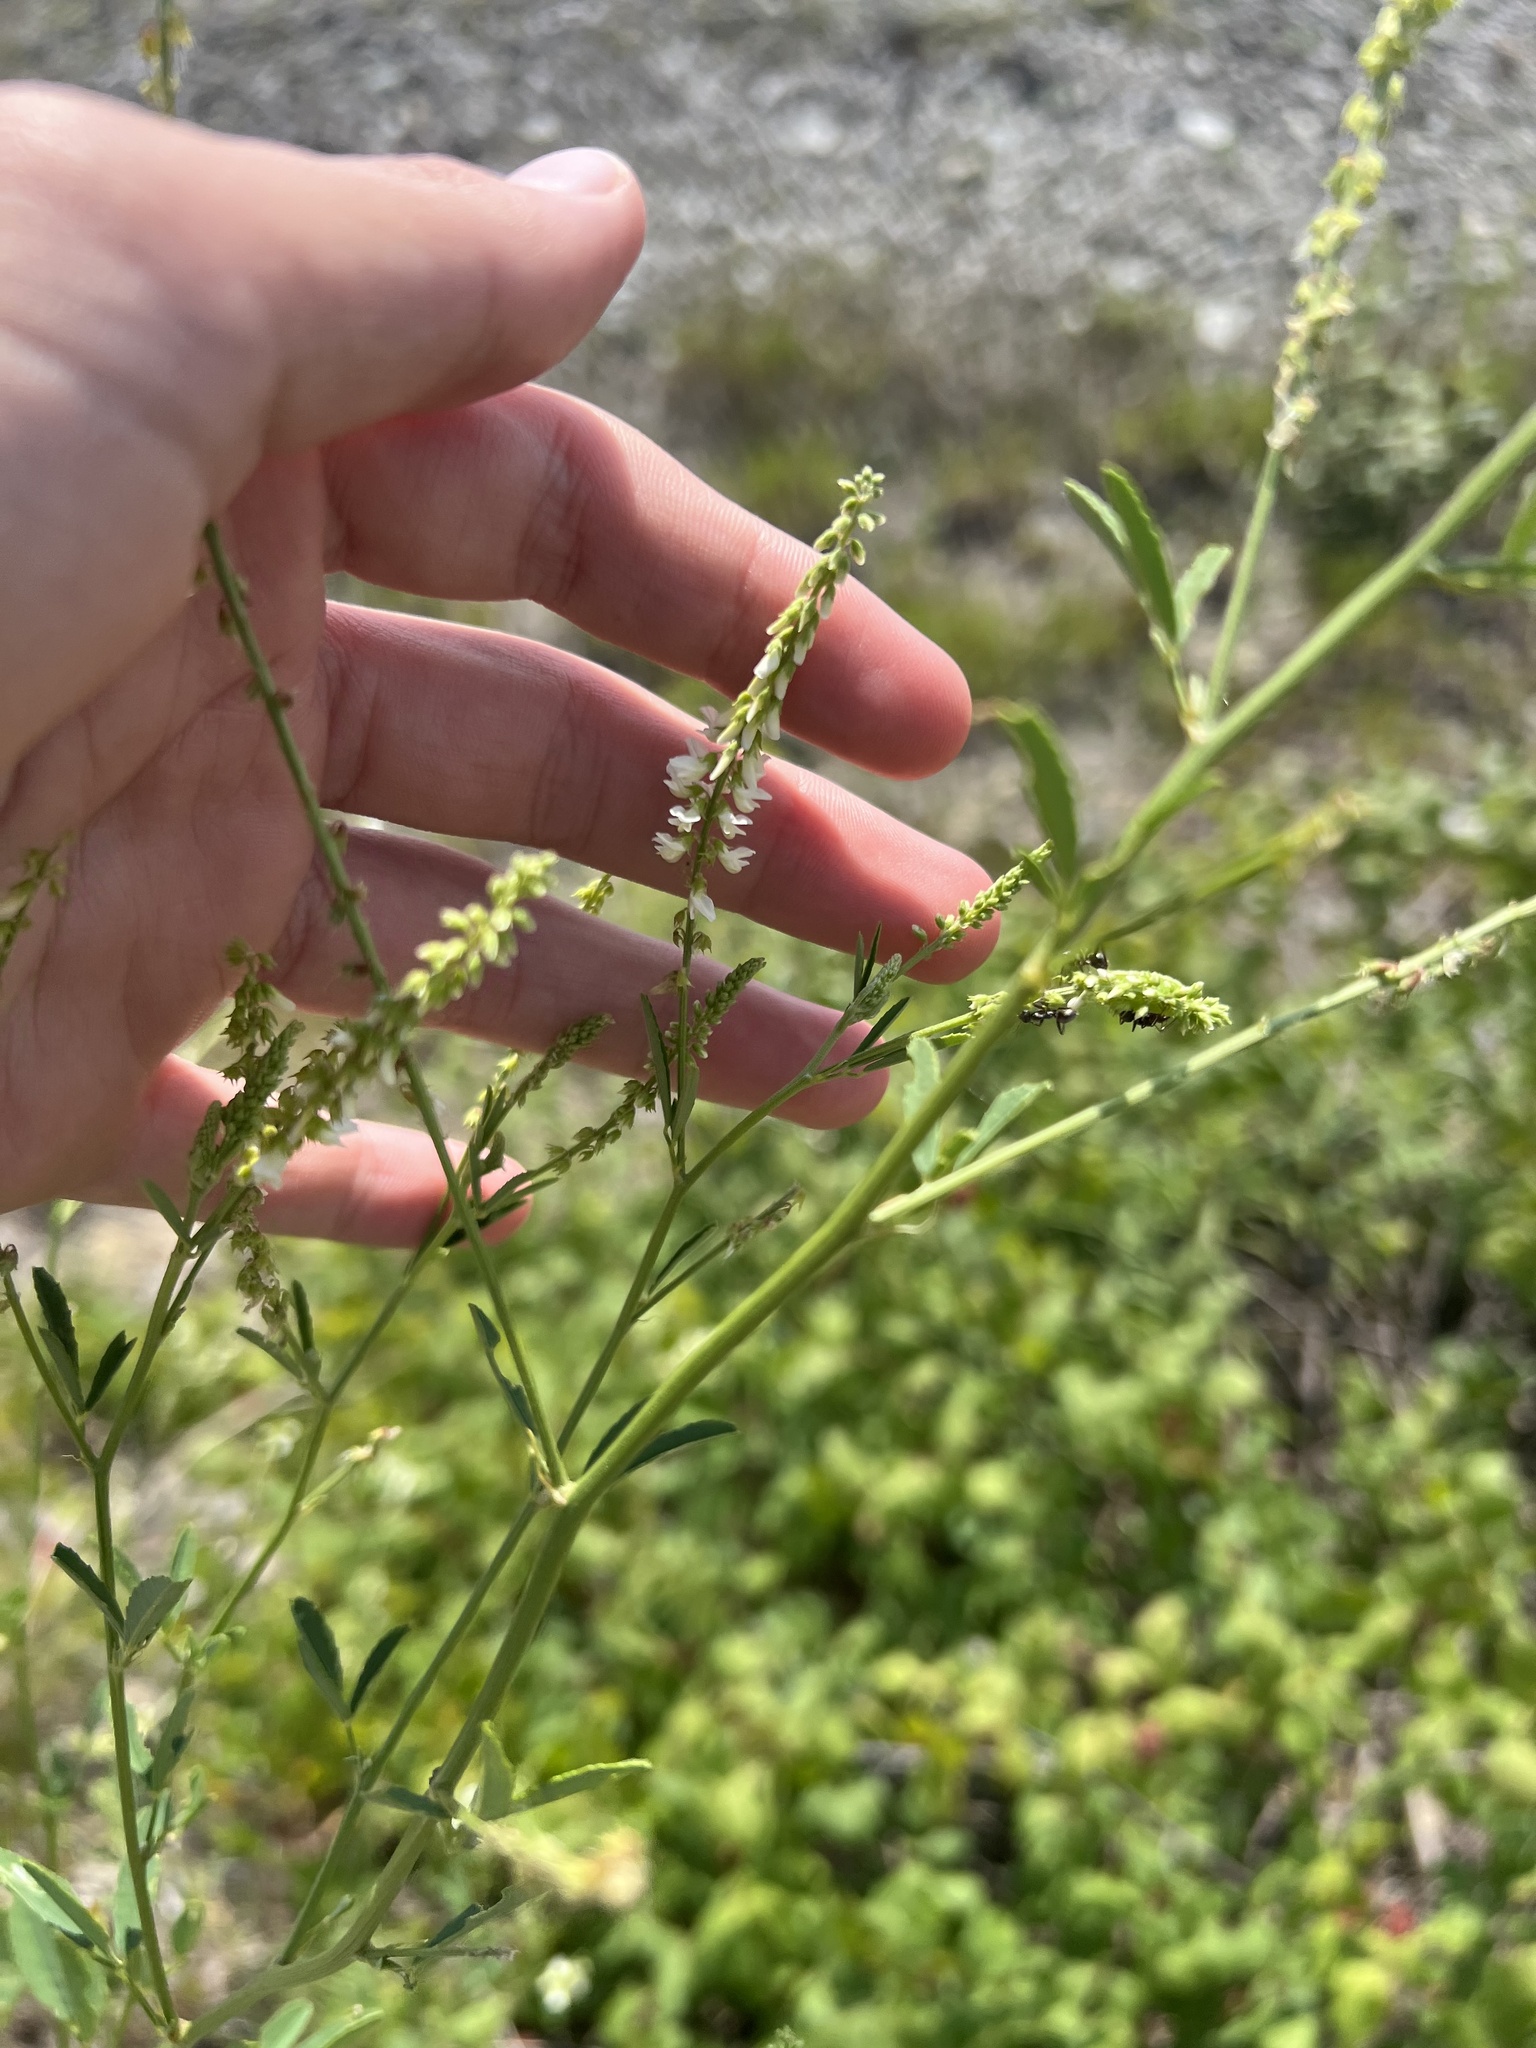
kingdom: Plantae
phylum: Tracheophyta
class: Magnoliopsida
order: Fabales
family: Fabaceae
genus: Melilotus
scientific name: Melilotus albus
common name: White melilot
